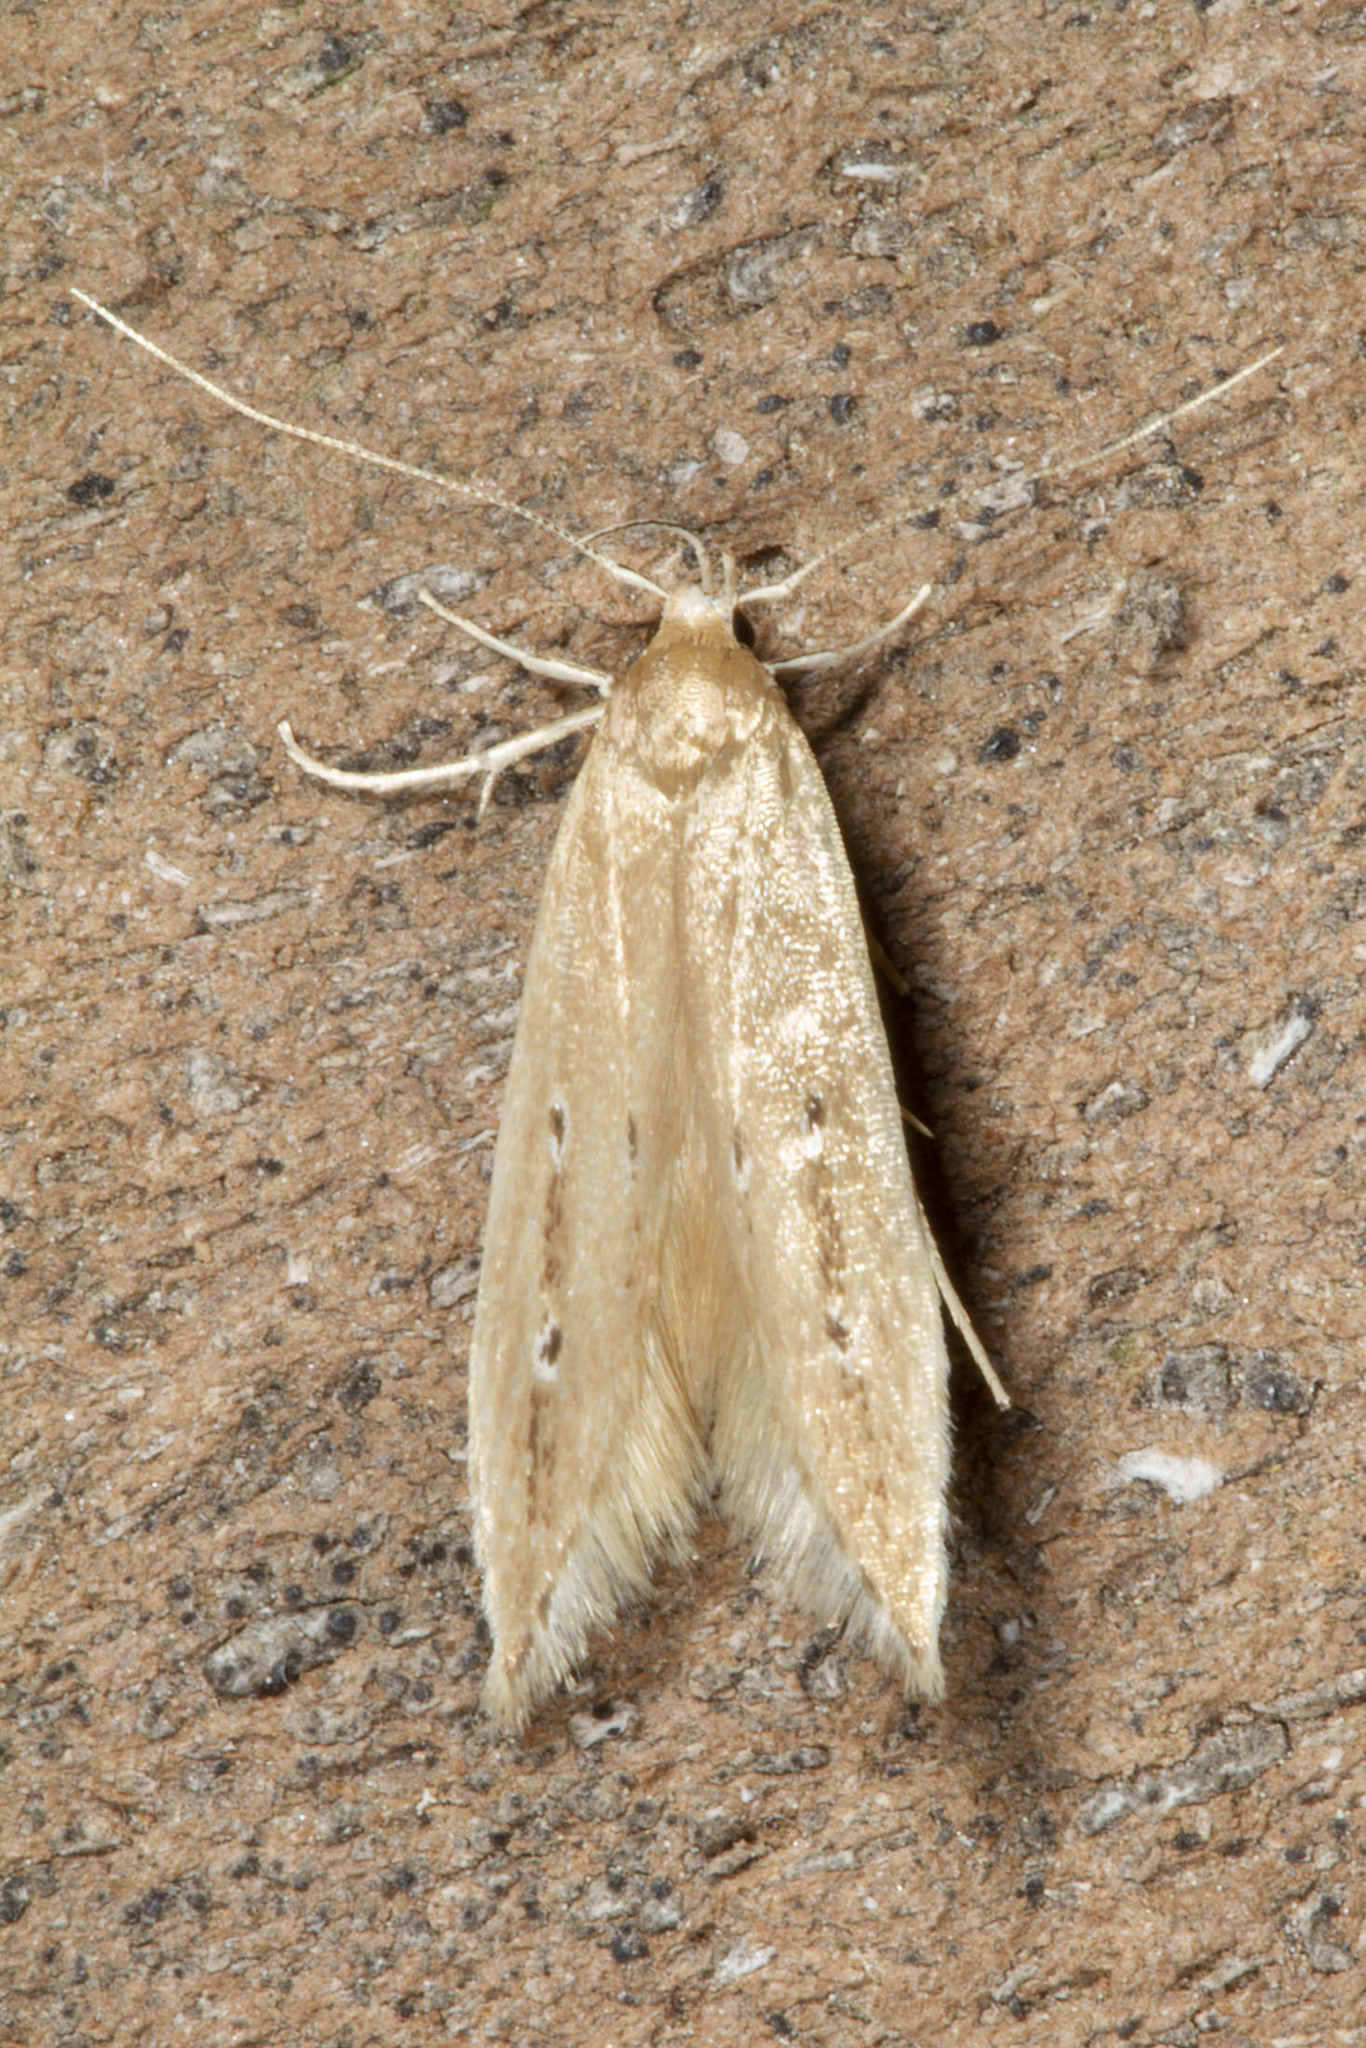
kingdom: Animalia
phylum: Arthropoda
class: Insecta
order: Lepidoptera
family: Cosmopterigidae
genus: Limnaecia
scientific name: Limnaecia phragmitella
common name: Bulrush cosmet
